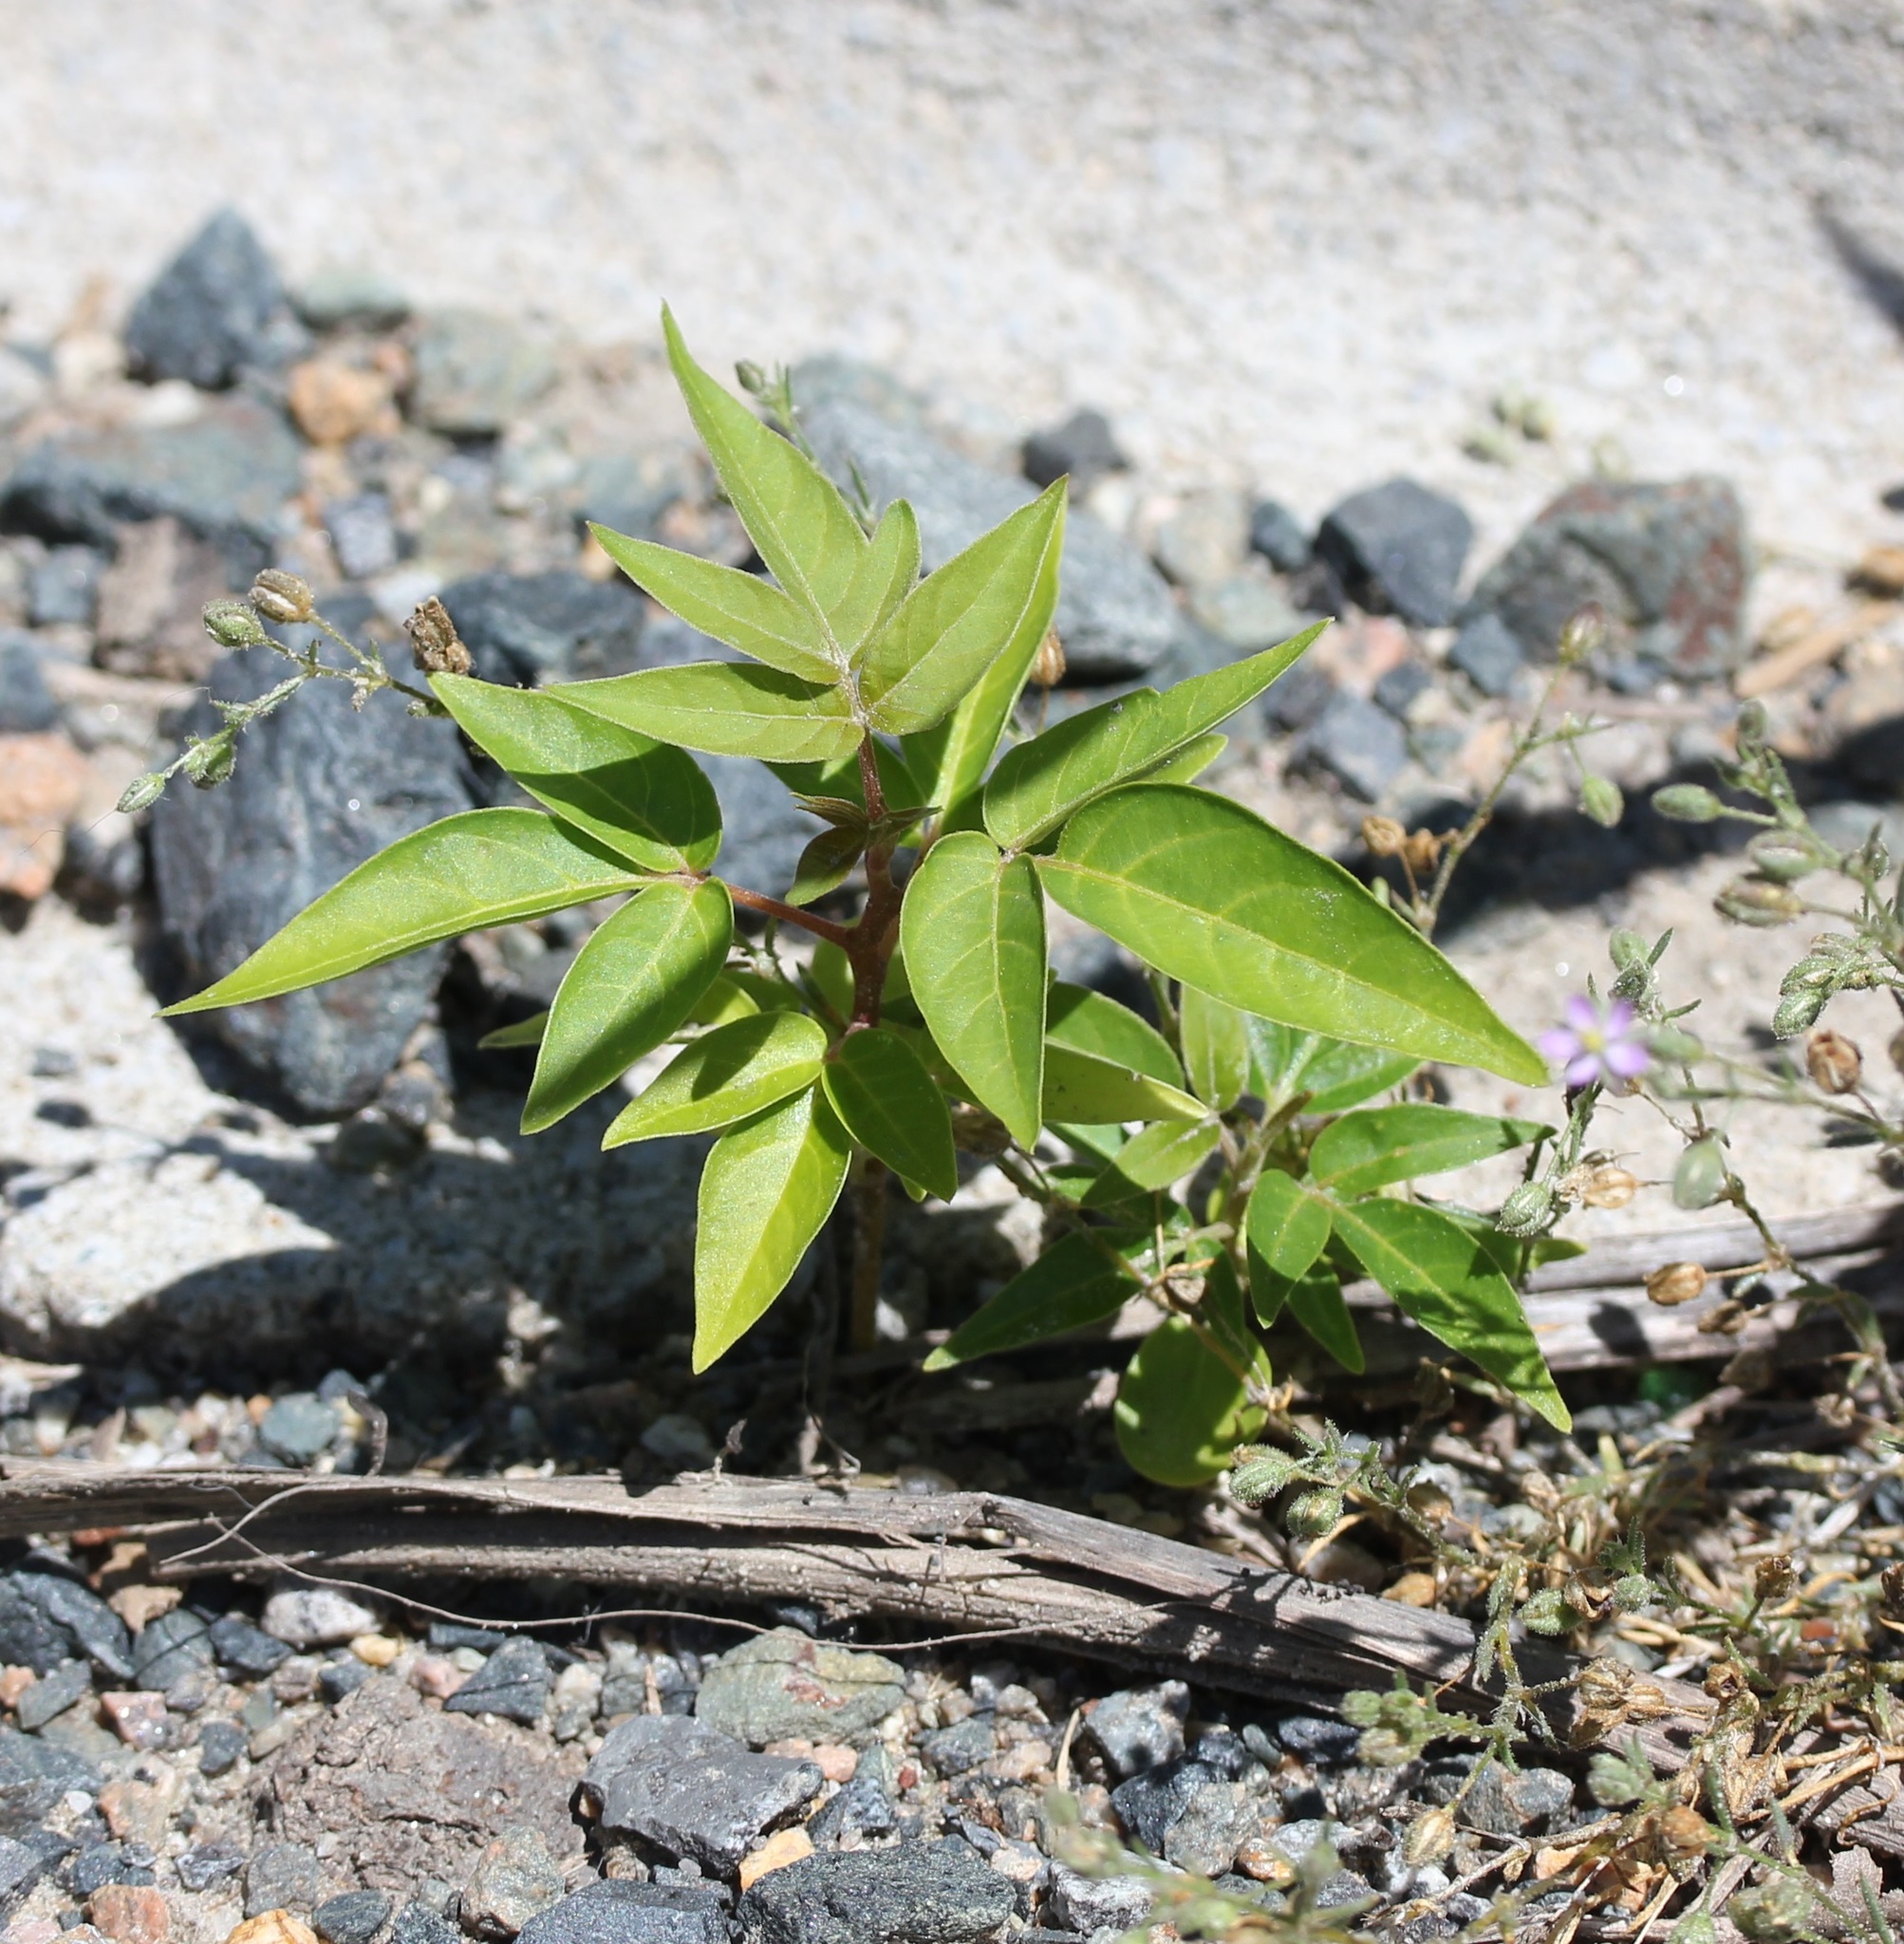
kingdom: Plantae
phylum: Tracheophyta
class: Magnoliopsida
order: Sapindales
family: Simaroubaceae
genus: Ailanthus
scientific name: Ailanthus altissima
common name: Tree-of-heaven
